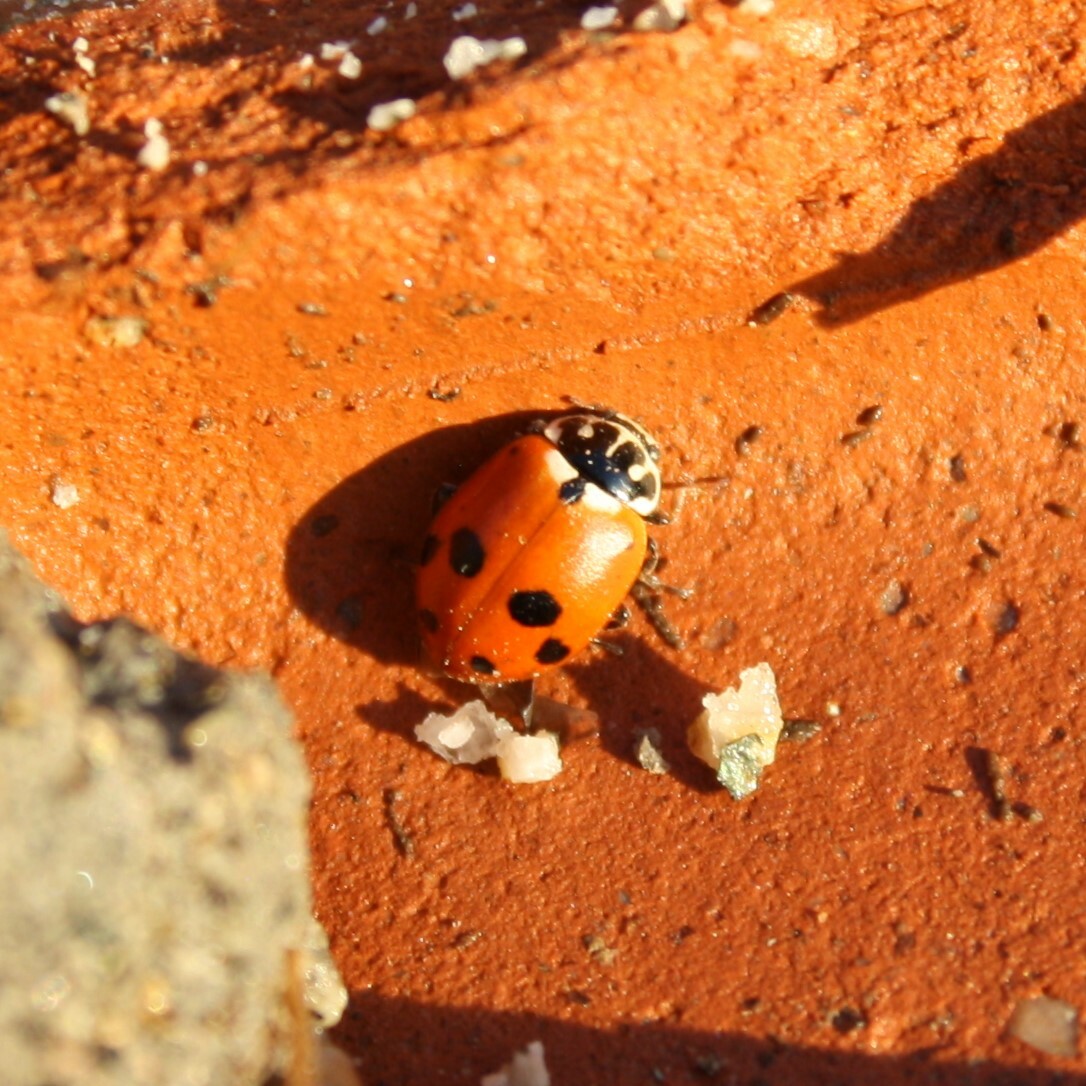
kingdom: Animalia
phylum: Arthropoda
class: Insecta
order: Coleoptera
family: Coccinellidae
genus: Hippodamia
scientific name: Hippodamia variegata
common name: Ladybird beetle
